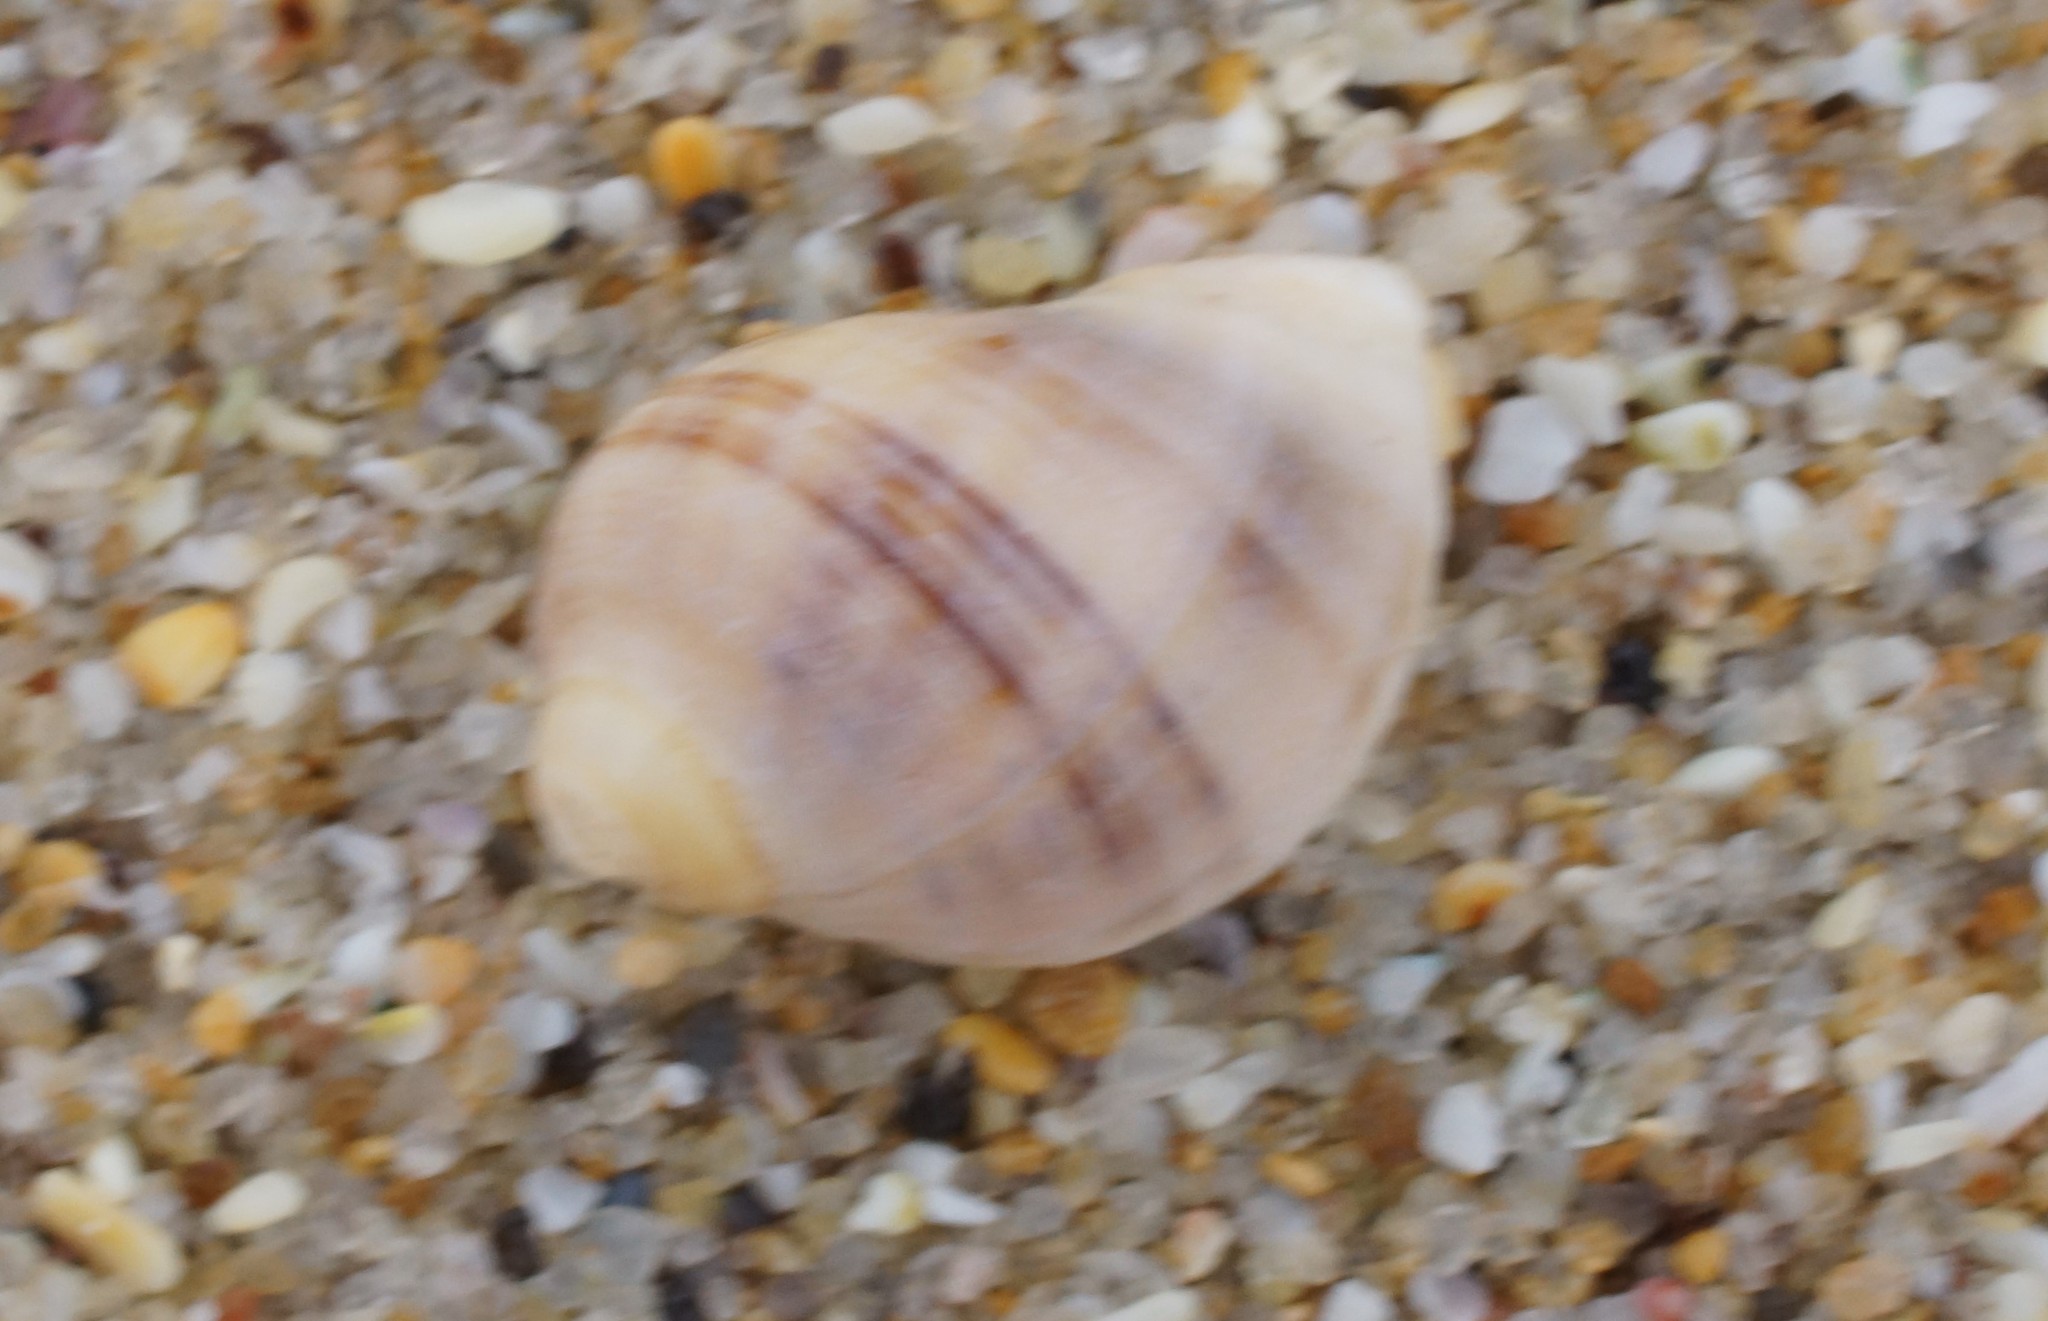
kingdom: Animalia
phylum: Mollusca
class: Gastropoda
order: Neogastropoda
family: Muricidae
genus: Dicathais
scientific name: Dicathais orbita
